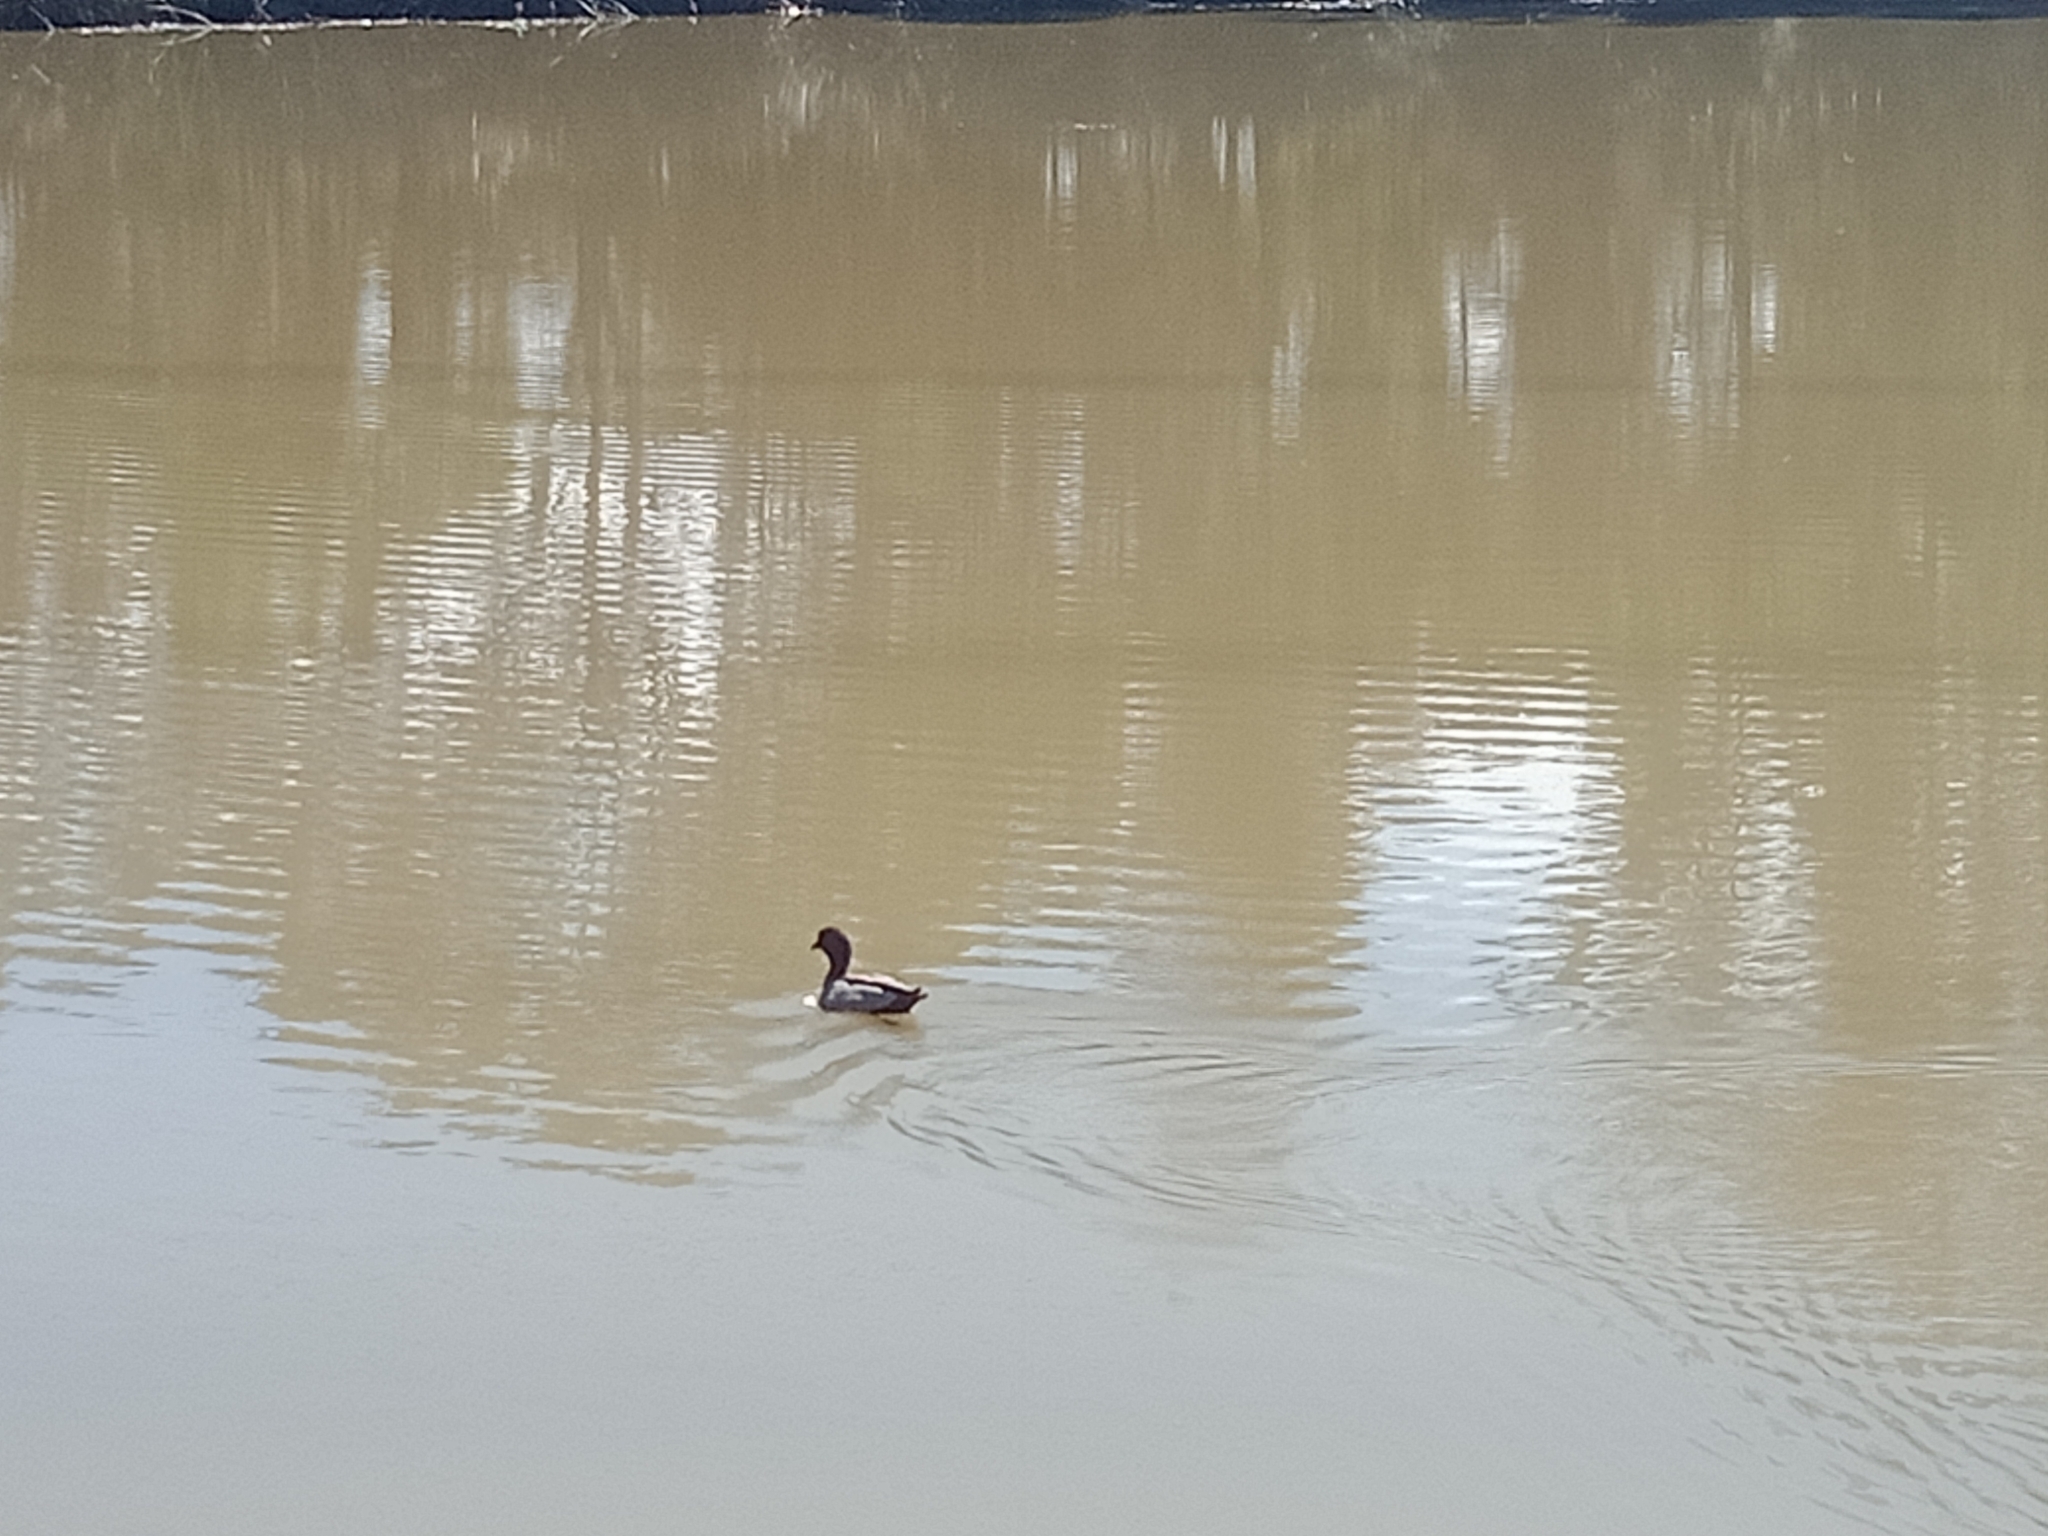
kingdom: Animalia
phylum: Chordata
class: Aves
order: Anseriformes
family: Anatidae
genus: Chenonetta
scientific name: Chenonetta jubata
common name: Maned duck
